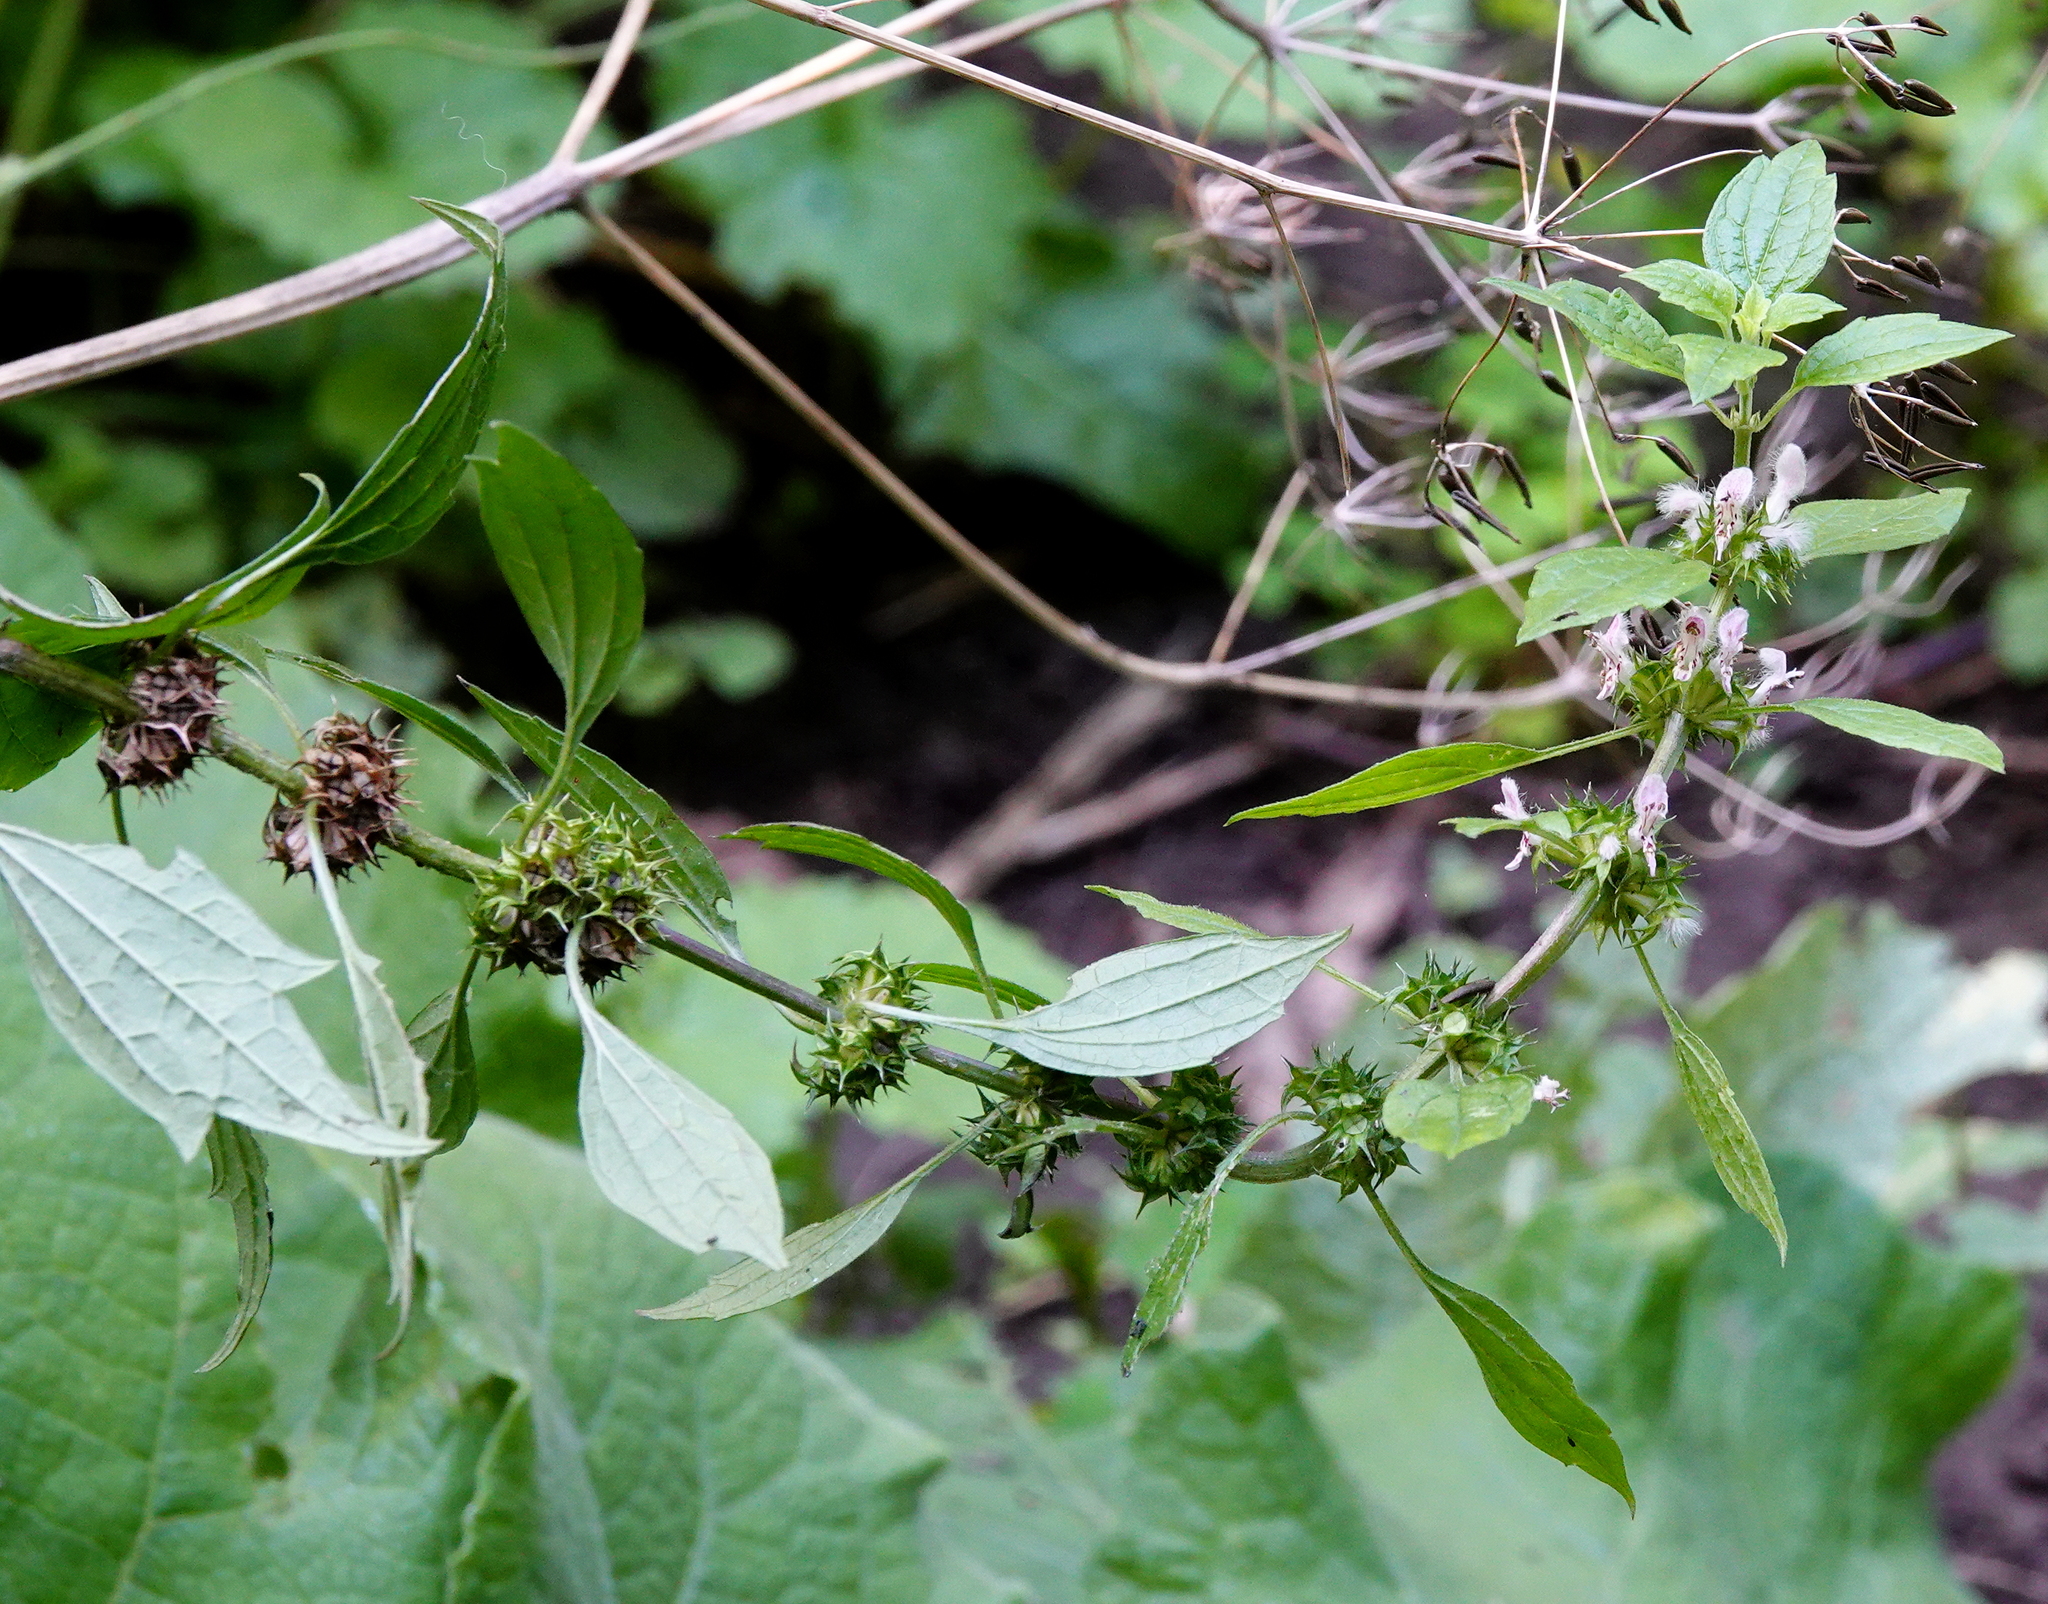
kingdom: Plantae
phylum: Tracheophyta
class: Magnoliopsida
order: Lamiales
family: Lamiaceae
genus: Leonurus
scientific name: Leonurus cardiaca
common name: Motherwort
